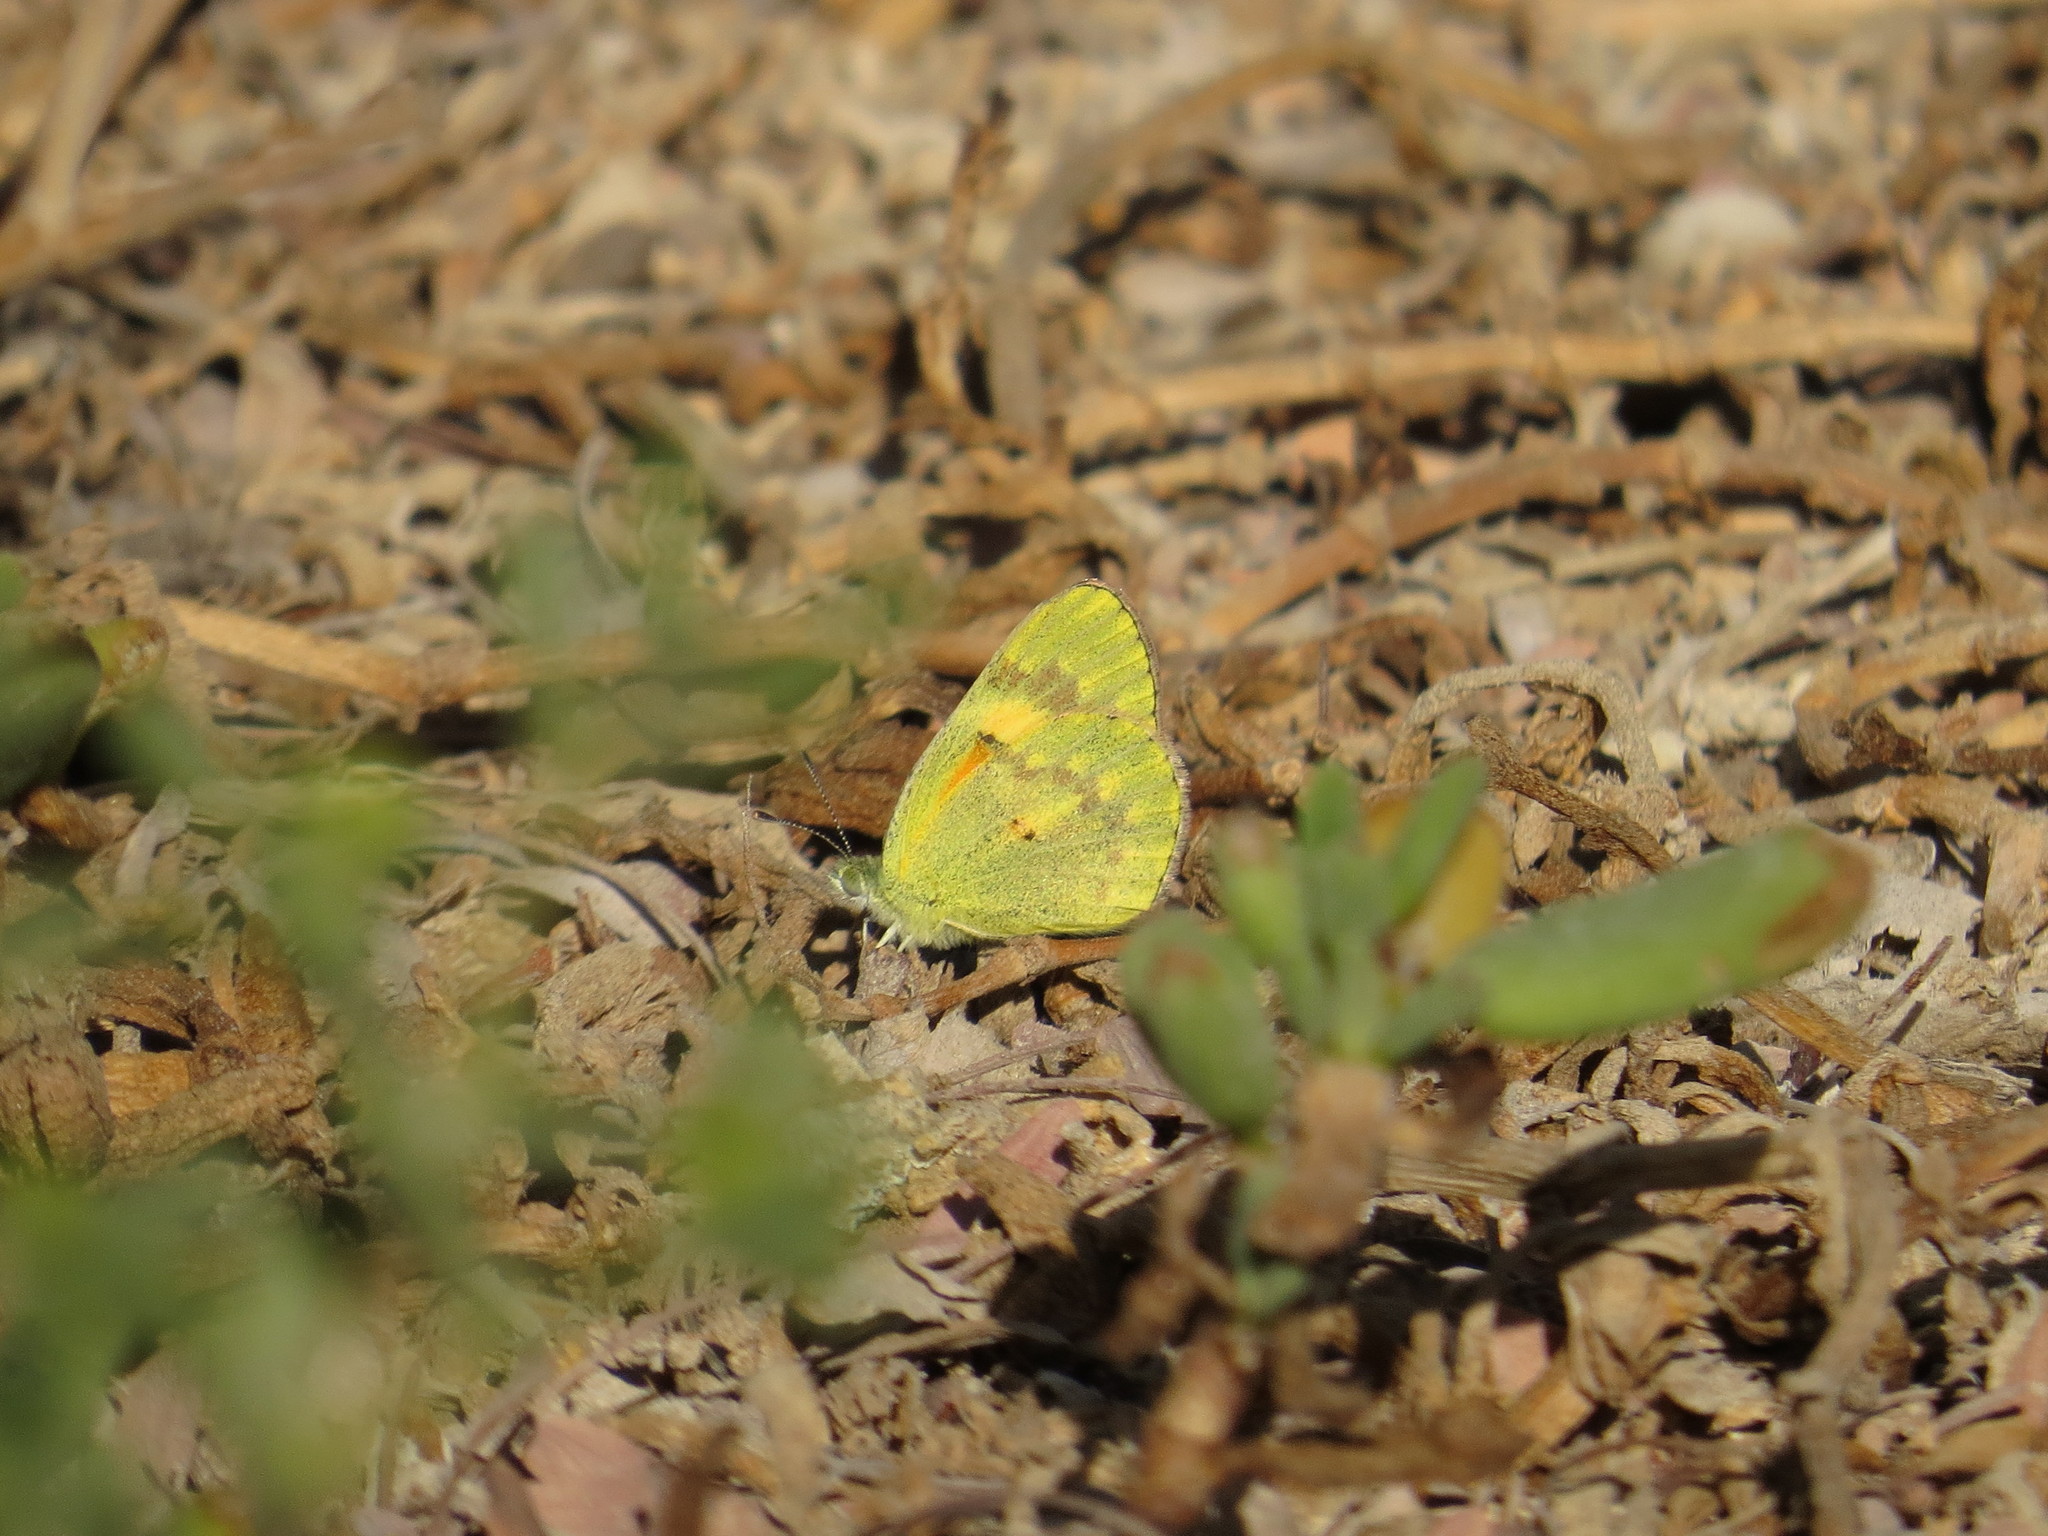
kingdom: Animalia
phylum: Arthropoda
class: Insecta
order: Lepidoptera
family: Pieridae
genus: Colotis
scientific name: Colotis amata
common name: Small salmon arab
